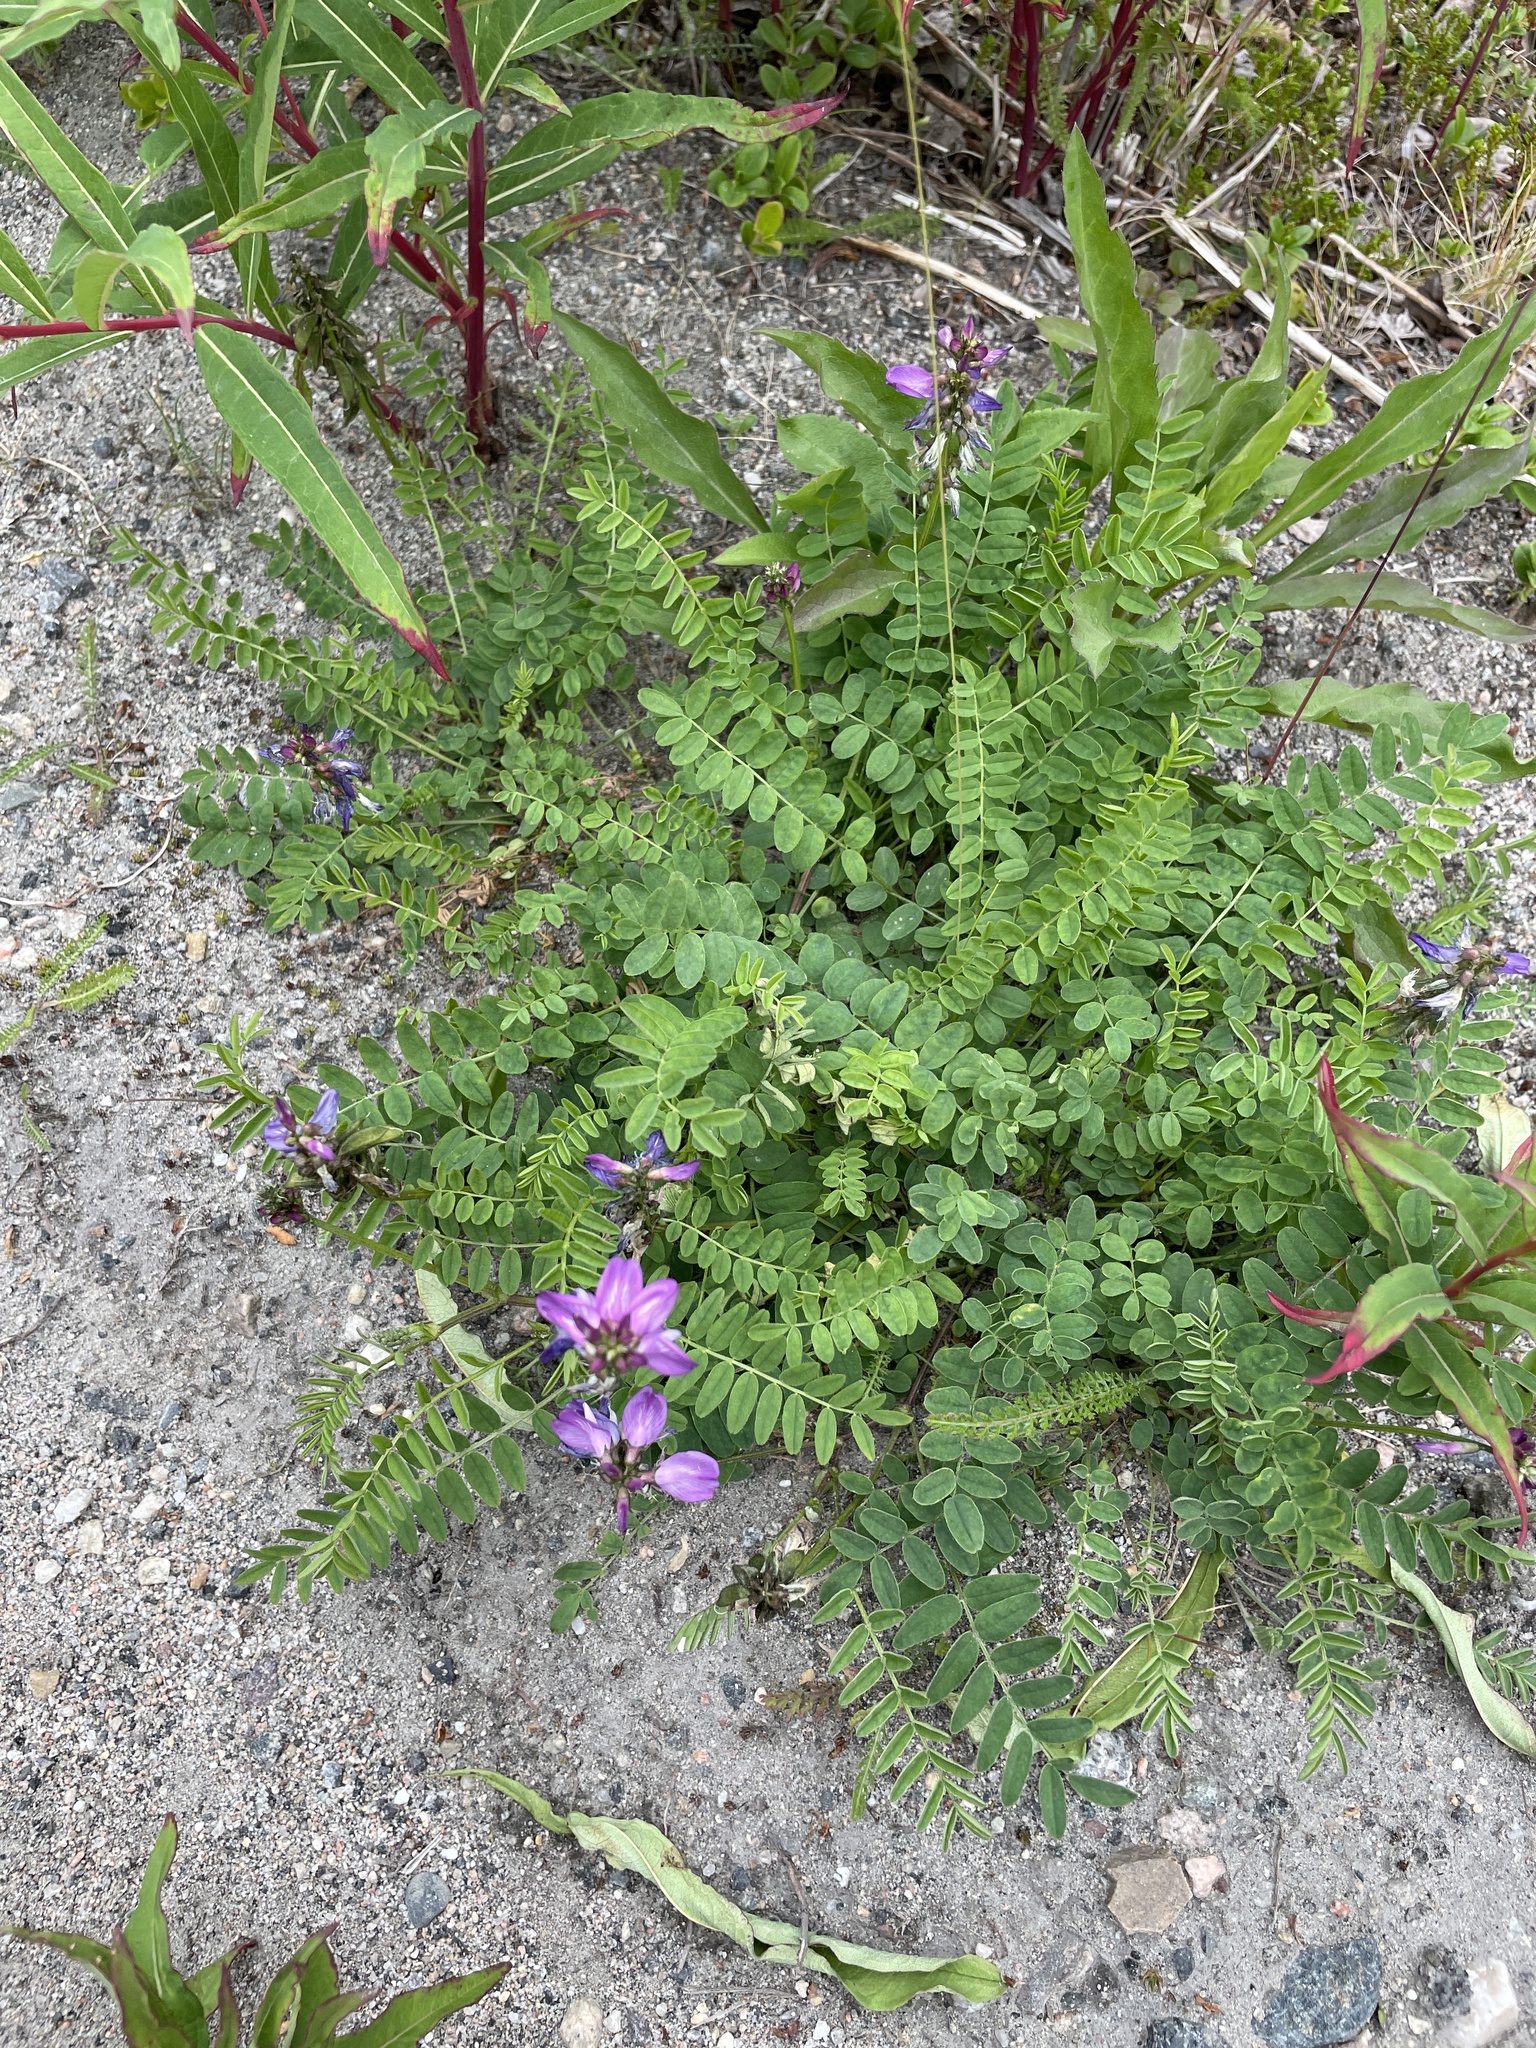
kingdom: Plantae
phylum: Tracheophyta
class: Magnoliopsida
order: Fabales
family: Fabaceae
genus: Astragalus
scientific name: Astragalus alpinus
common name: Alpine milk-vetch
